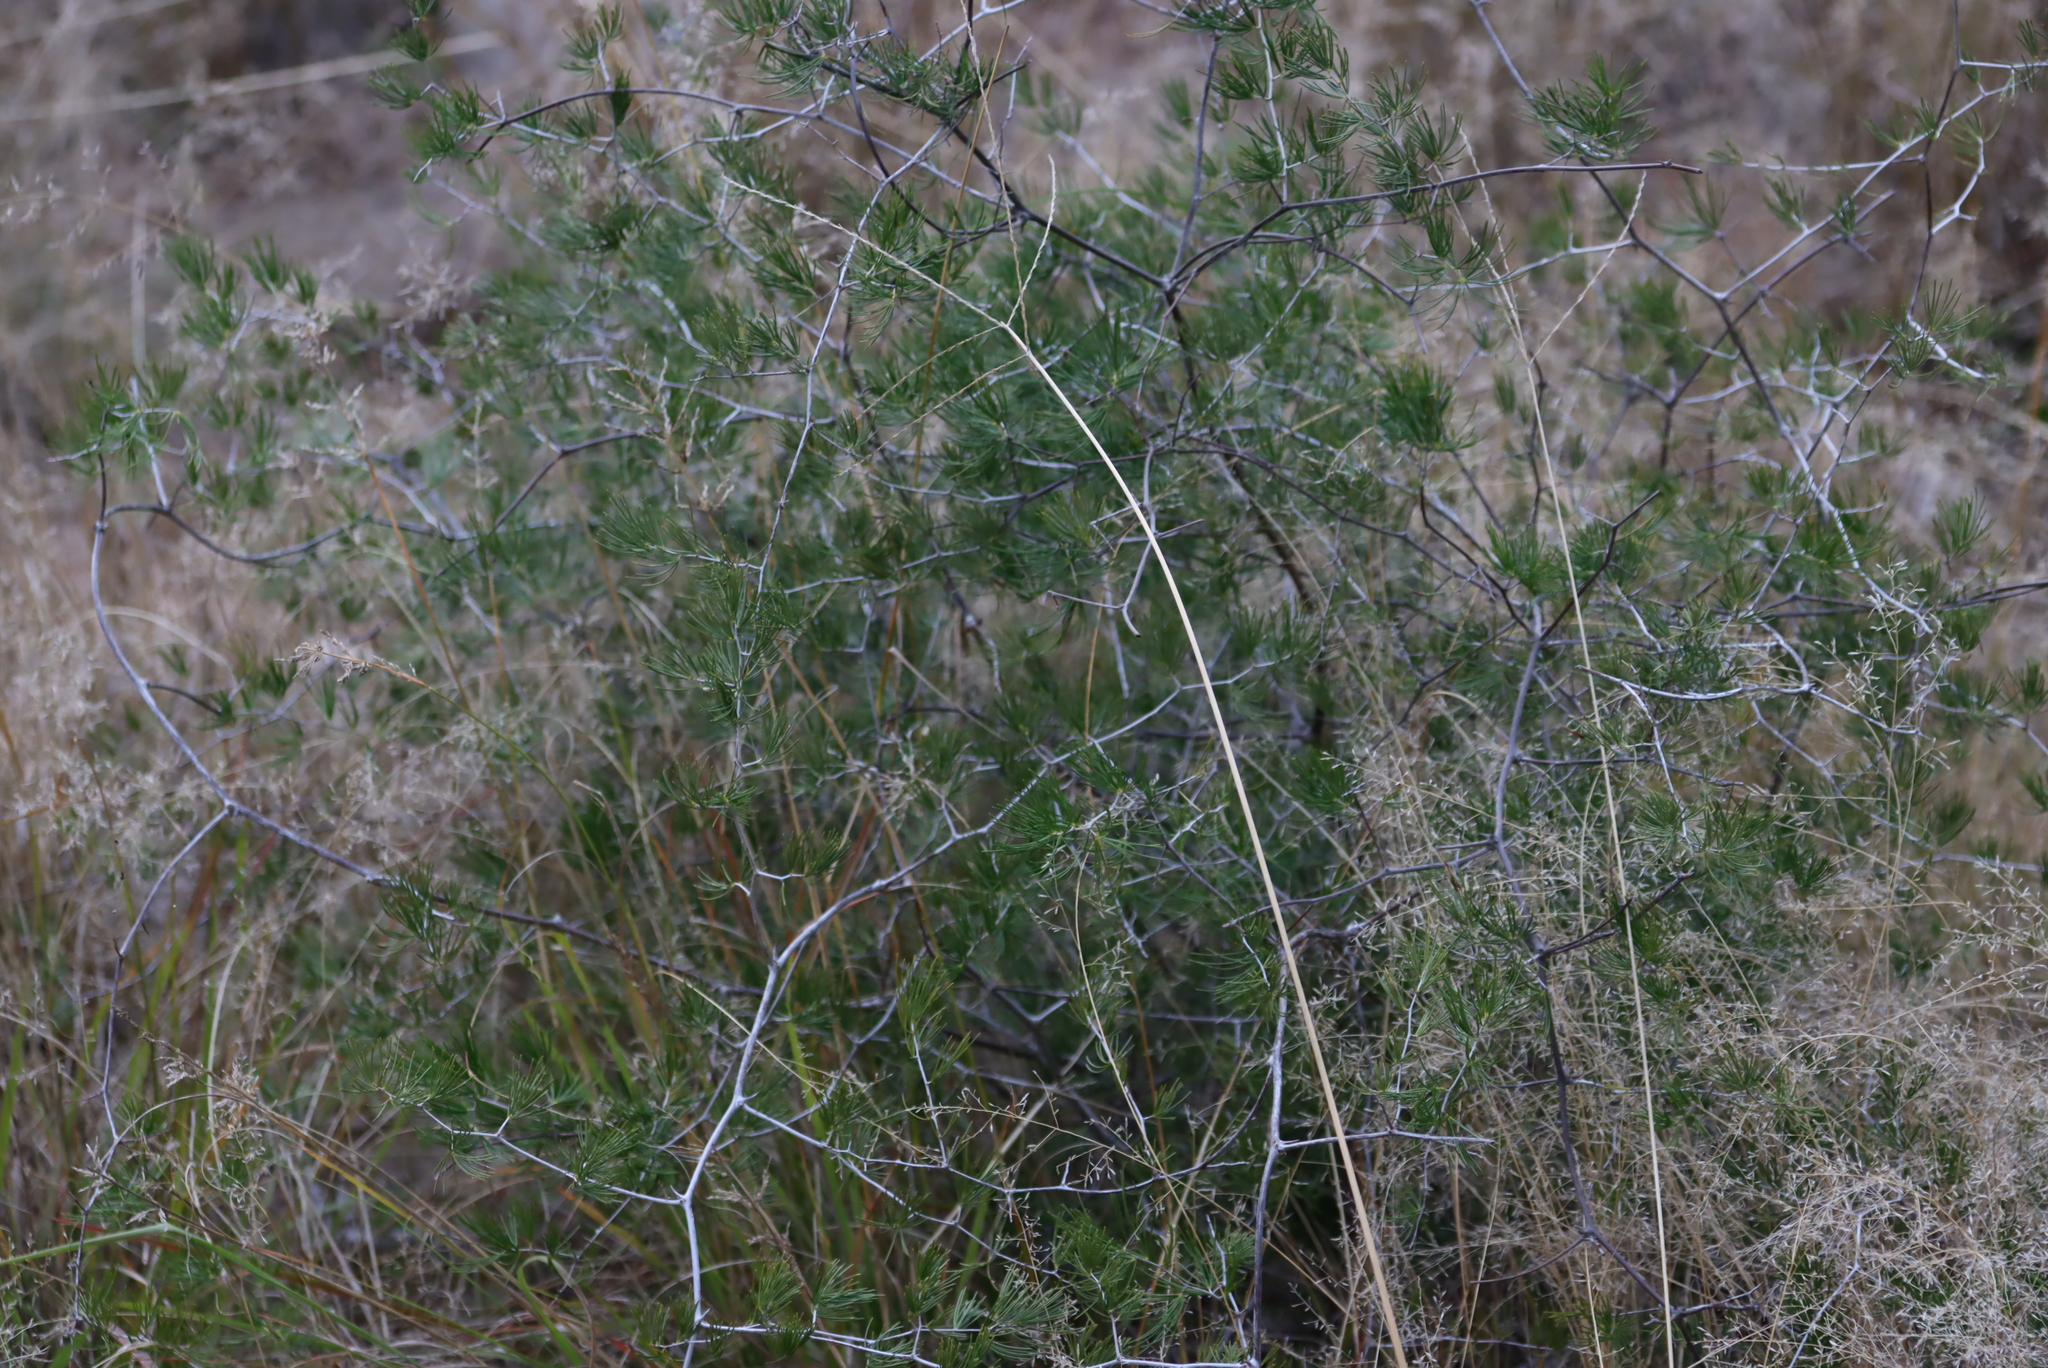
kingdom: Plantae
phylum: Tracheophyta
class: Liliopsida
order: Asparagales
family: Asparagaceae
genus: Asparagus
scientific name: Asparagus retrofractus
